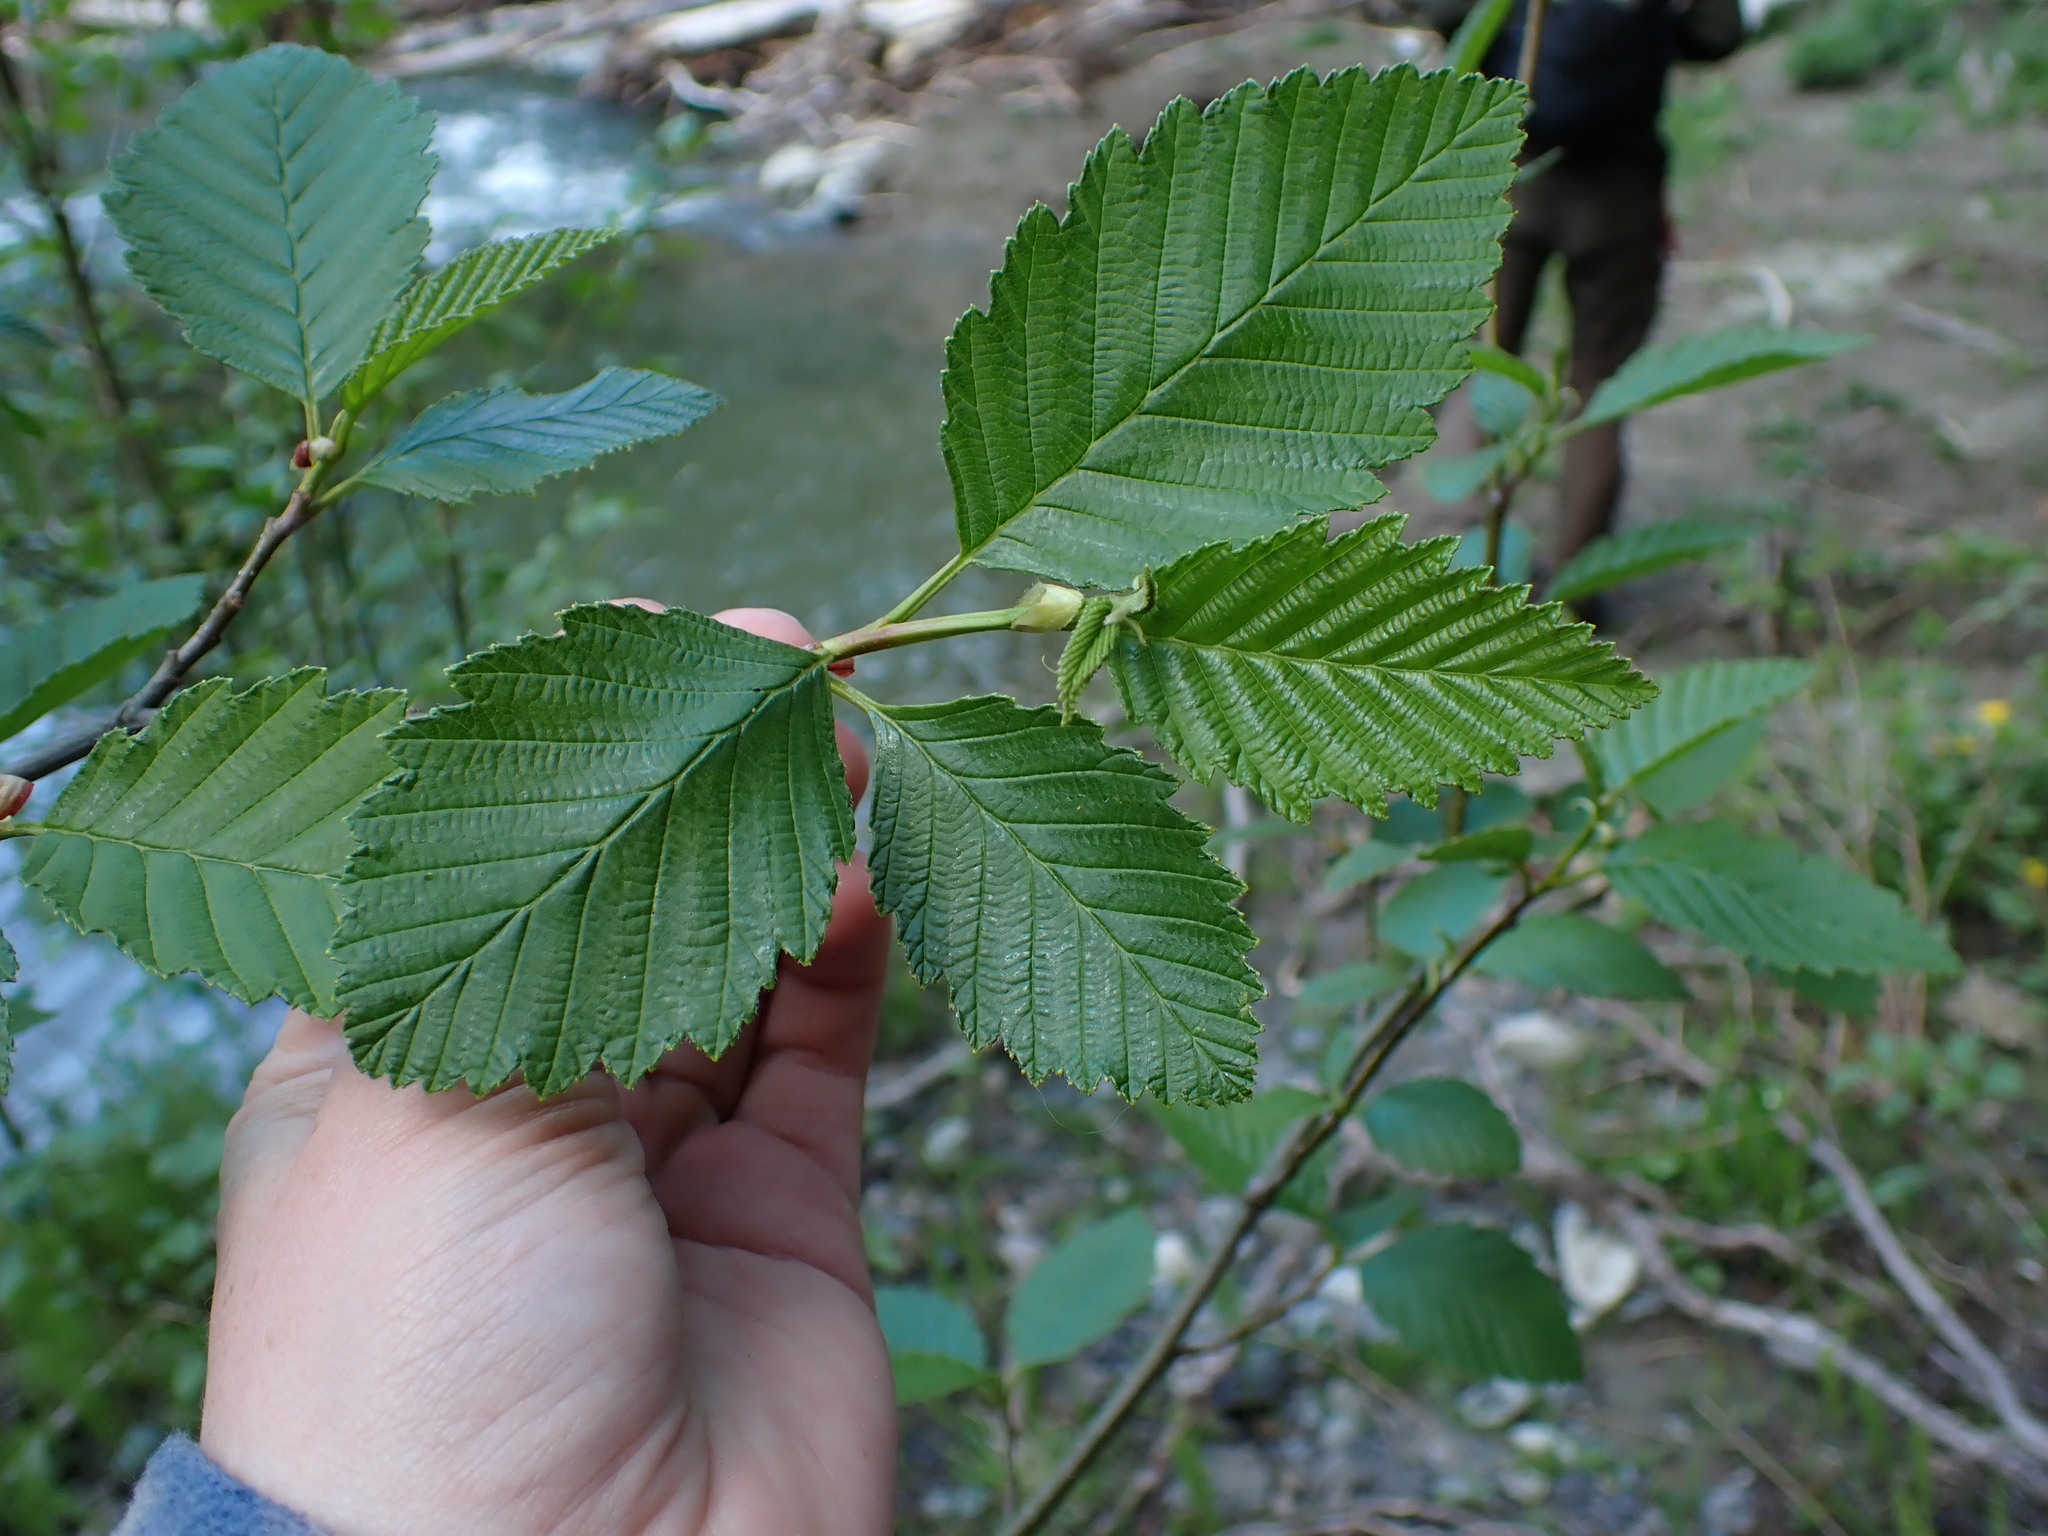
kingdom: Plantae
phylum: Tracheophyta
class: Magnoliopsida
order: Fagales
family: Betulaceae
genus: Alnus
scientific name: Alnus rubra
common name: Red alder
